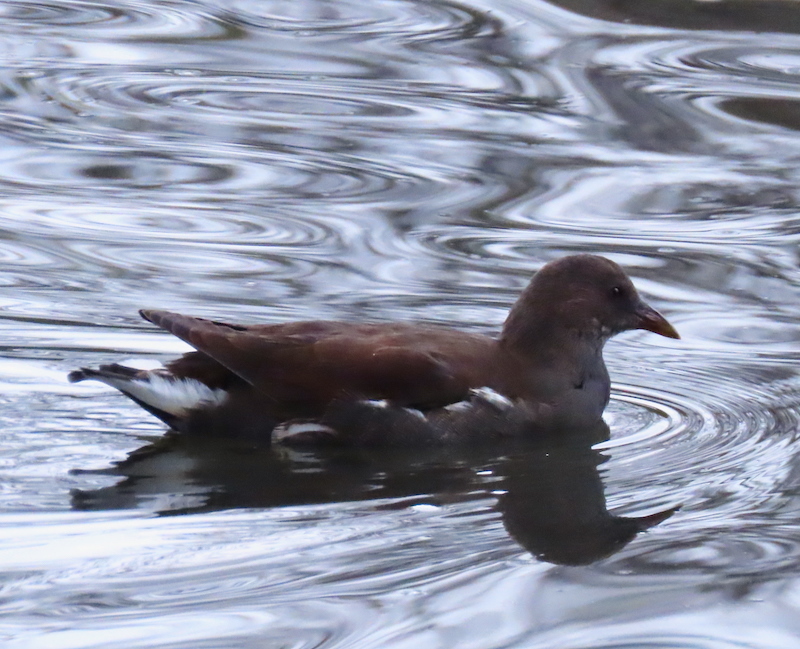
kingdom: Animalia
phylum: Chordata
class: Aves
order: Gruiformes
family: Rallidae
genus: Gallinula
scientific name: Gallinula chloropus
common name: Common moorhen
